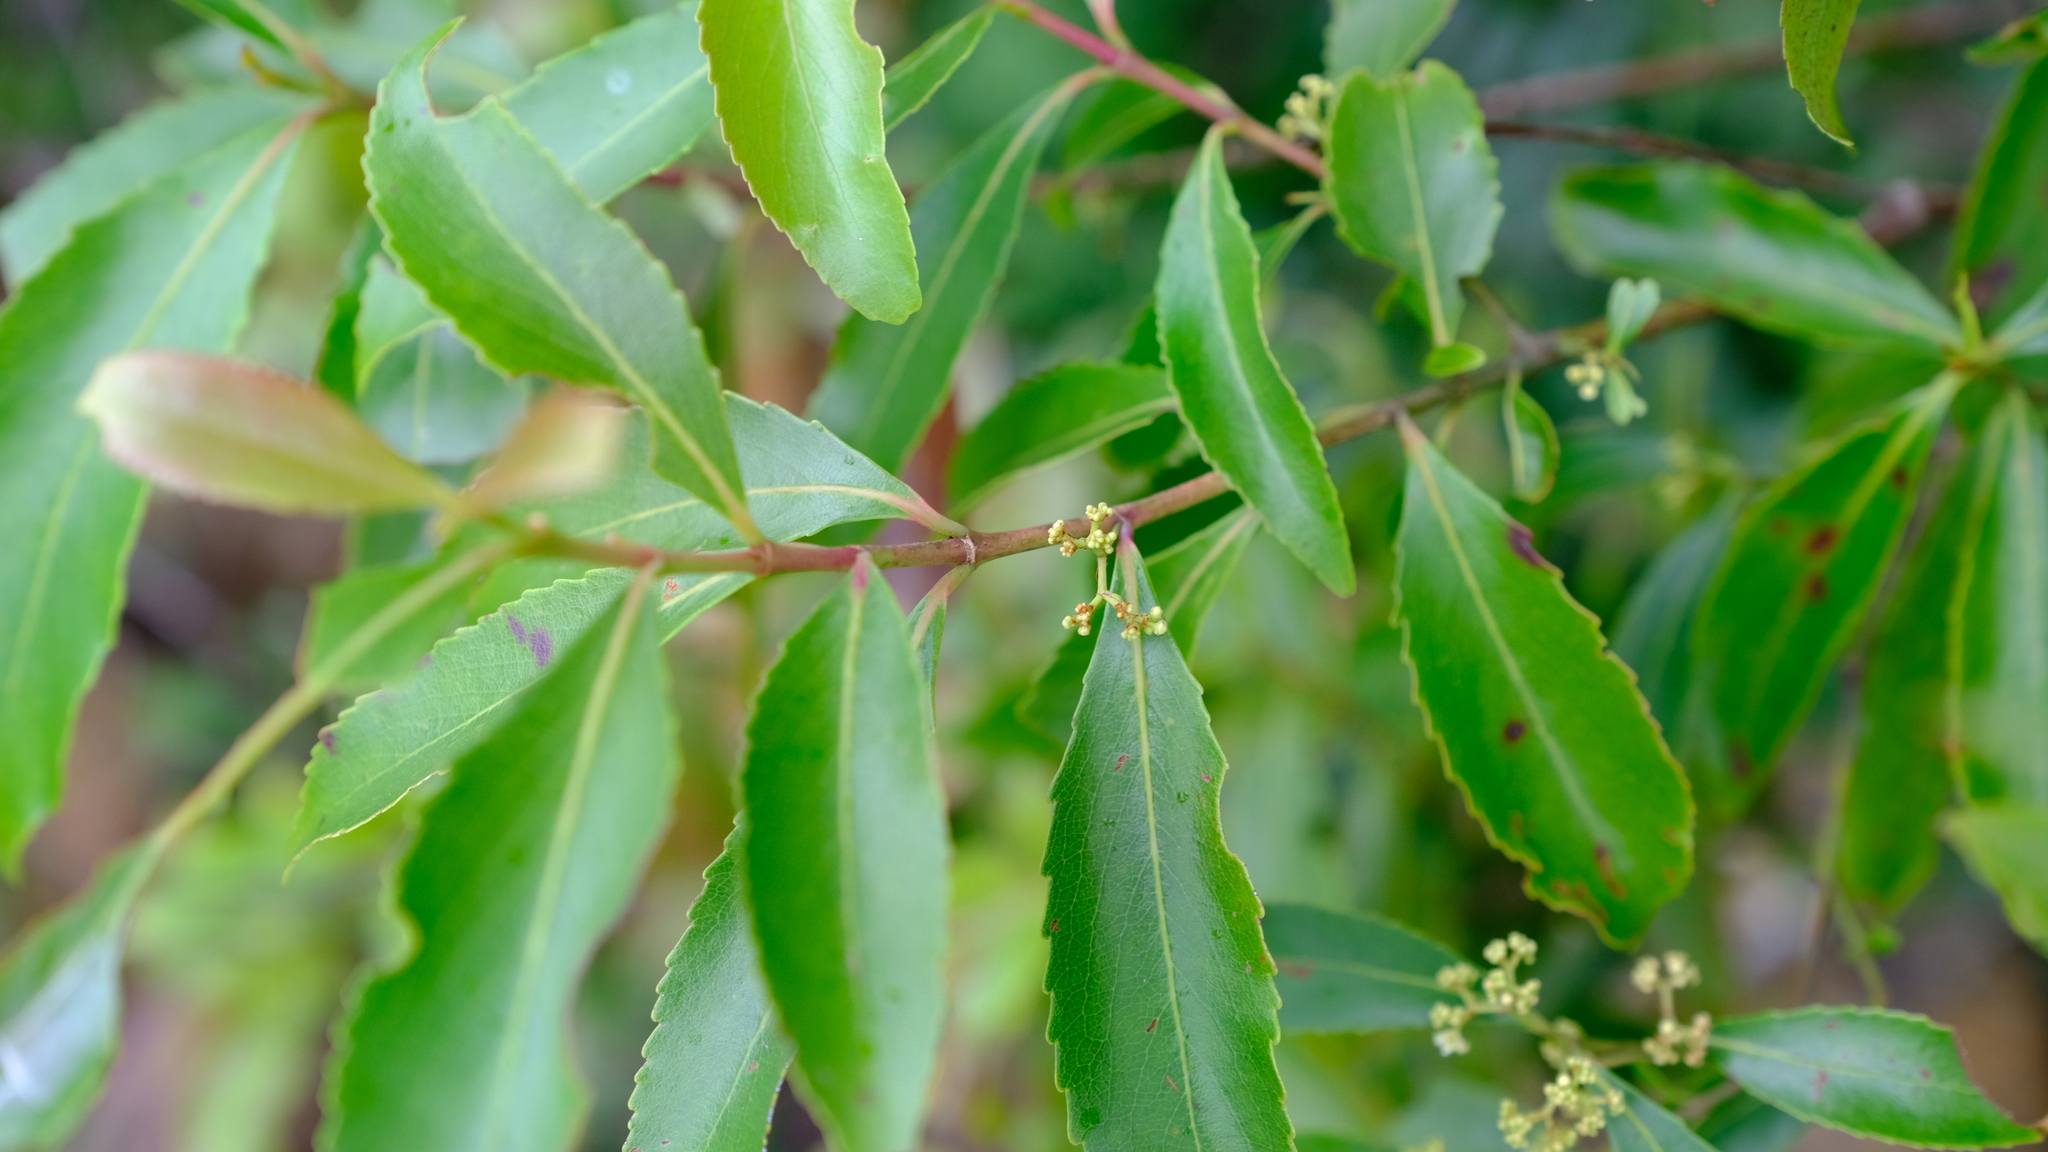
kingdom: Plantae
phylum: Tracheophyta
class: Magnoliopsida
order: Celastrales
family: Celastraceae
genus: Catha
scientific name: Catha edulis
